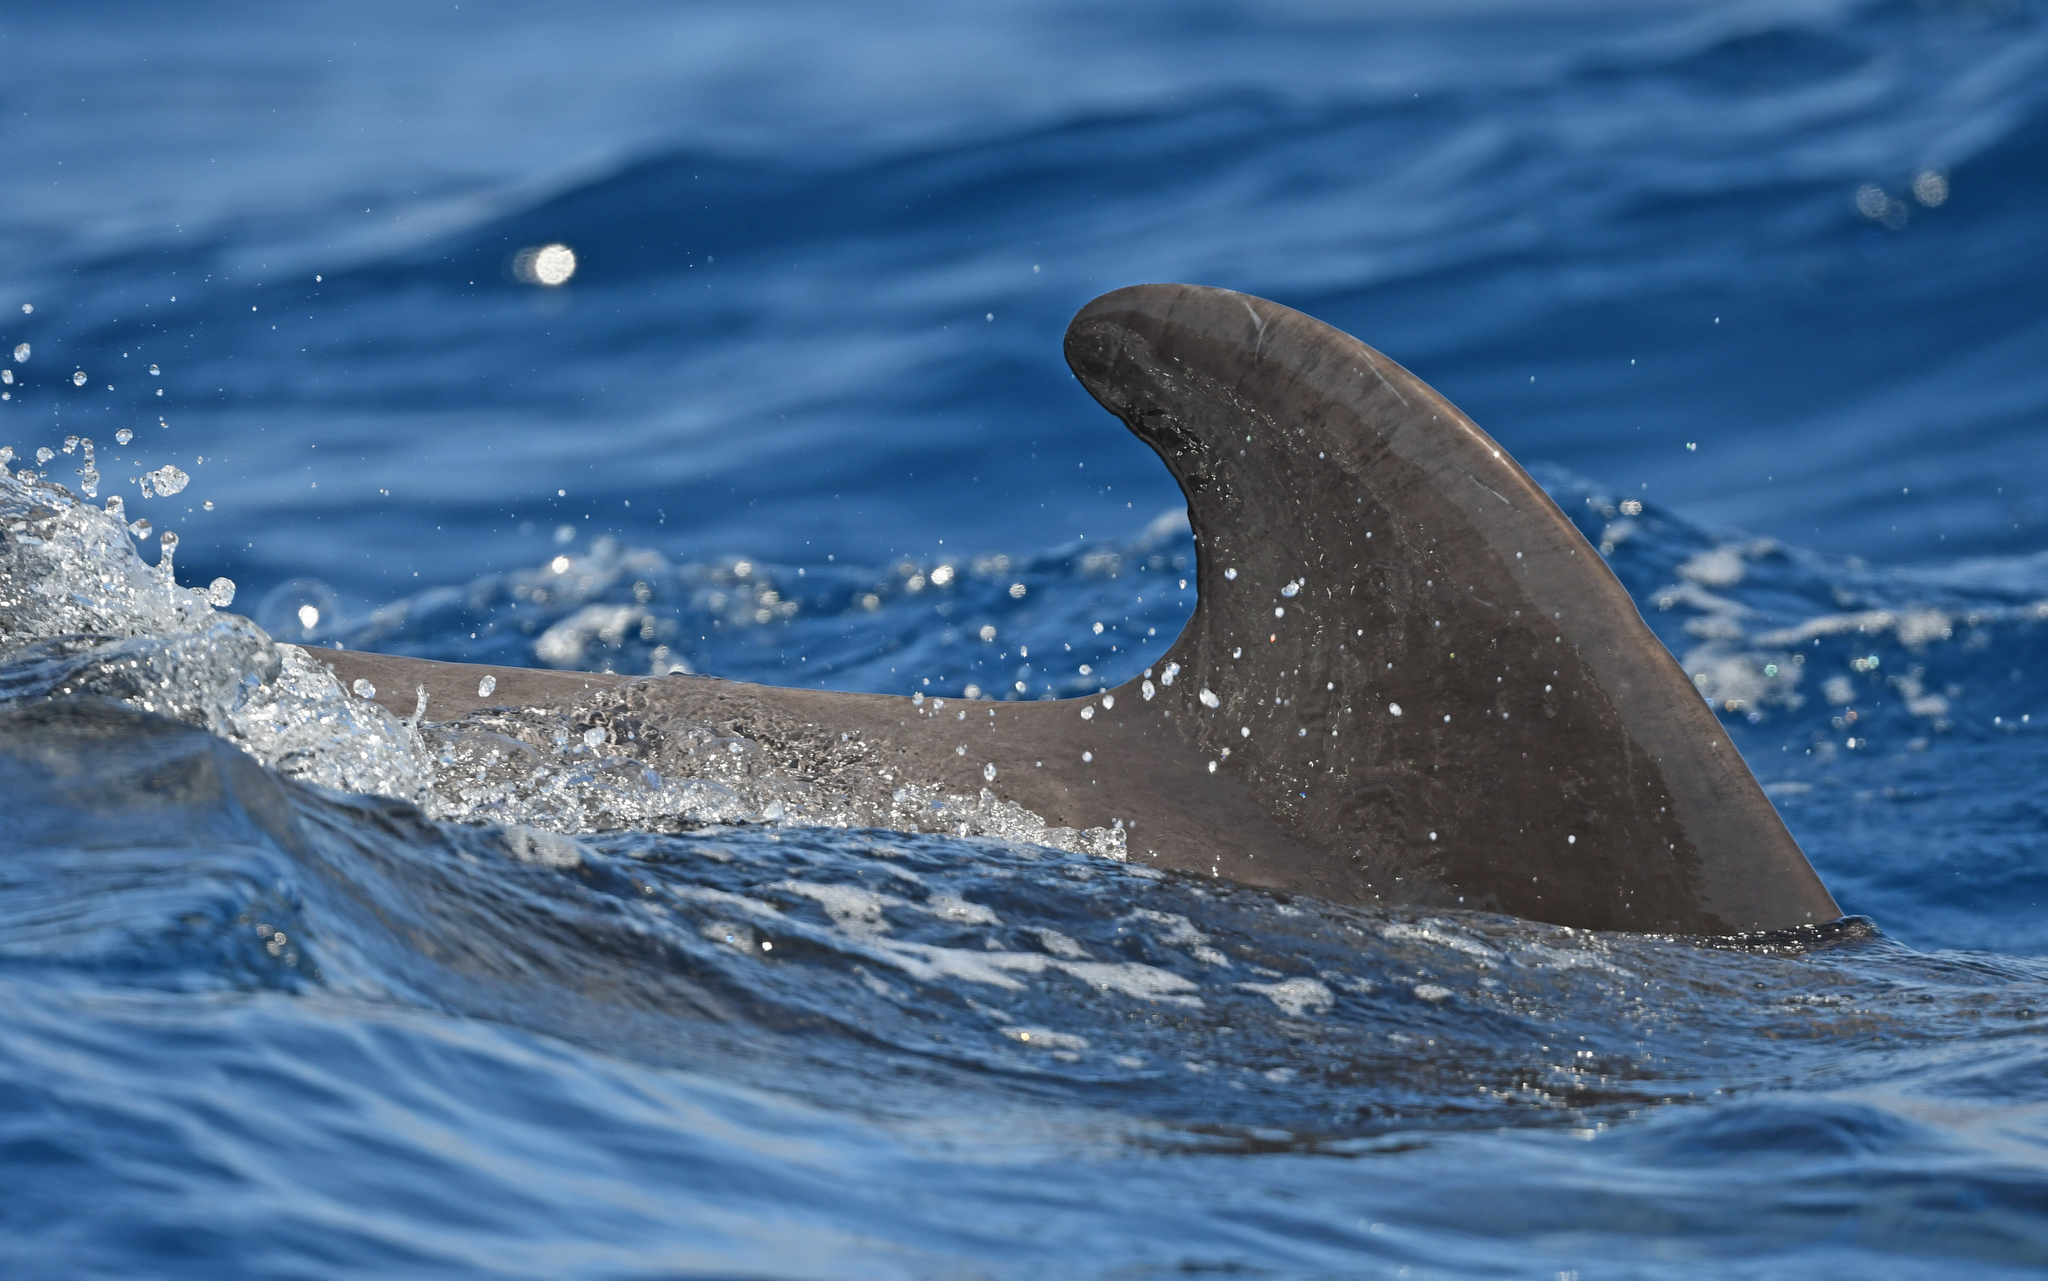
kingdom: Animalia
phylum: Chordata
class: Mammalia
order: Cetacea
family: Delphinidae
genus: Globicephala
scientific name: Globicephala macrorhynchus
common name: Short-finned pilot whale
